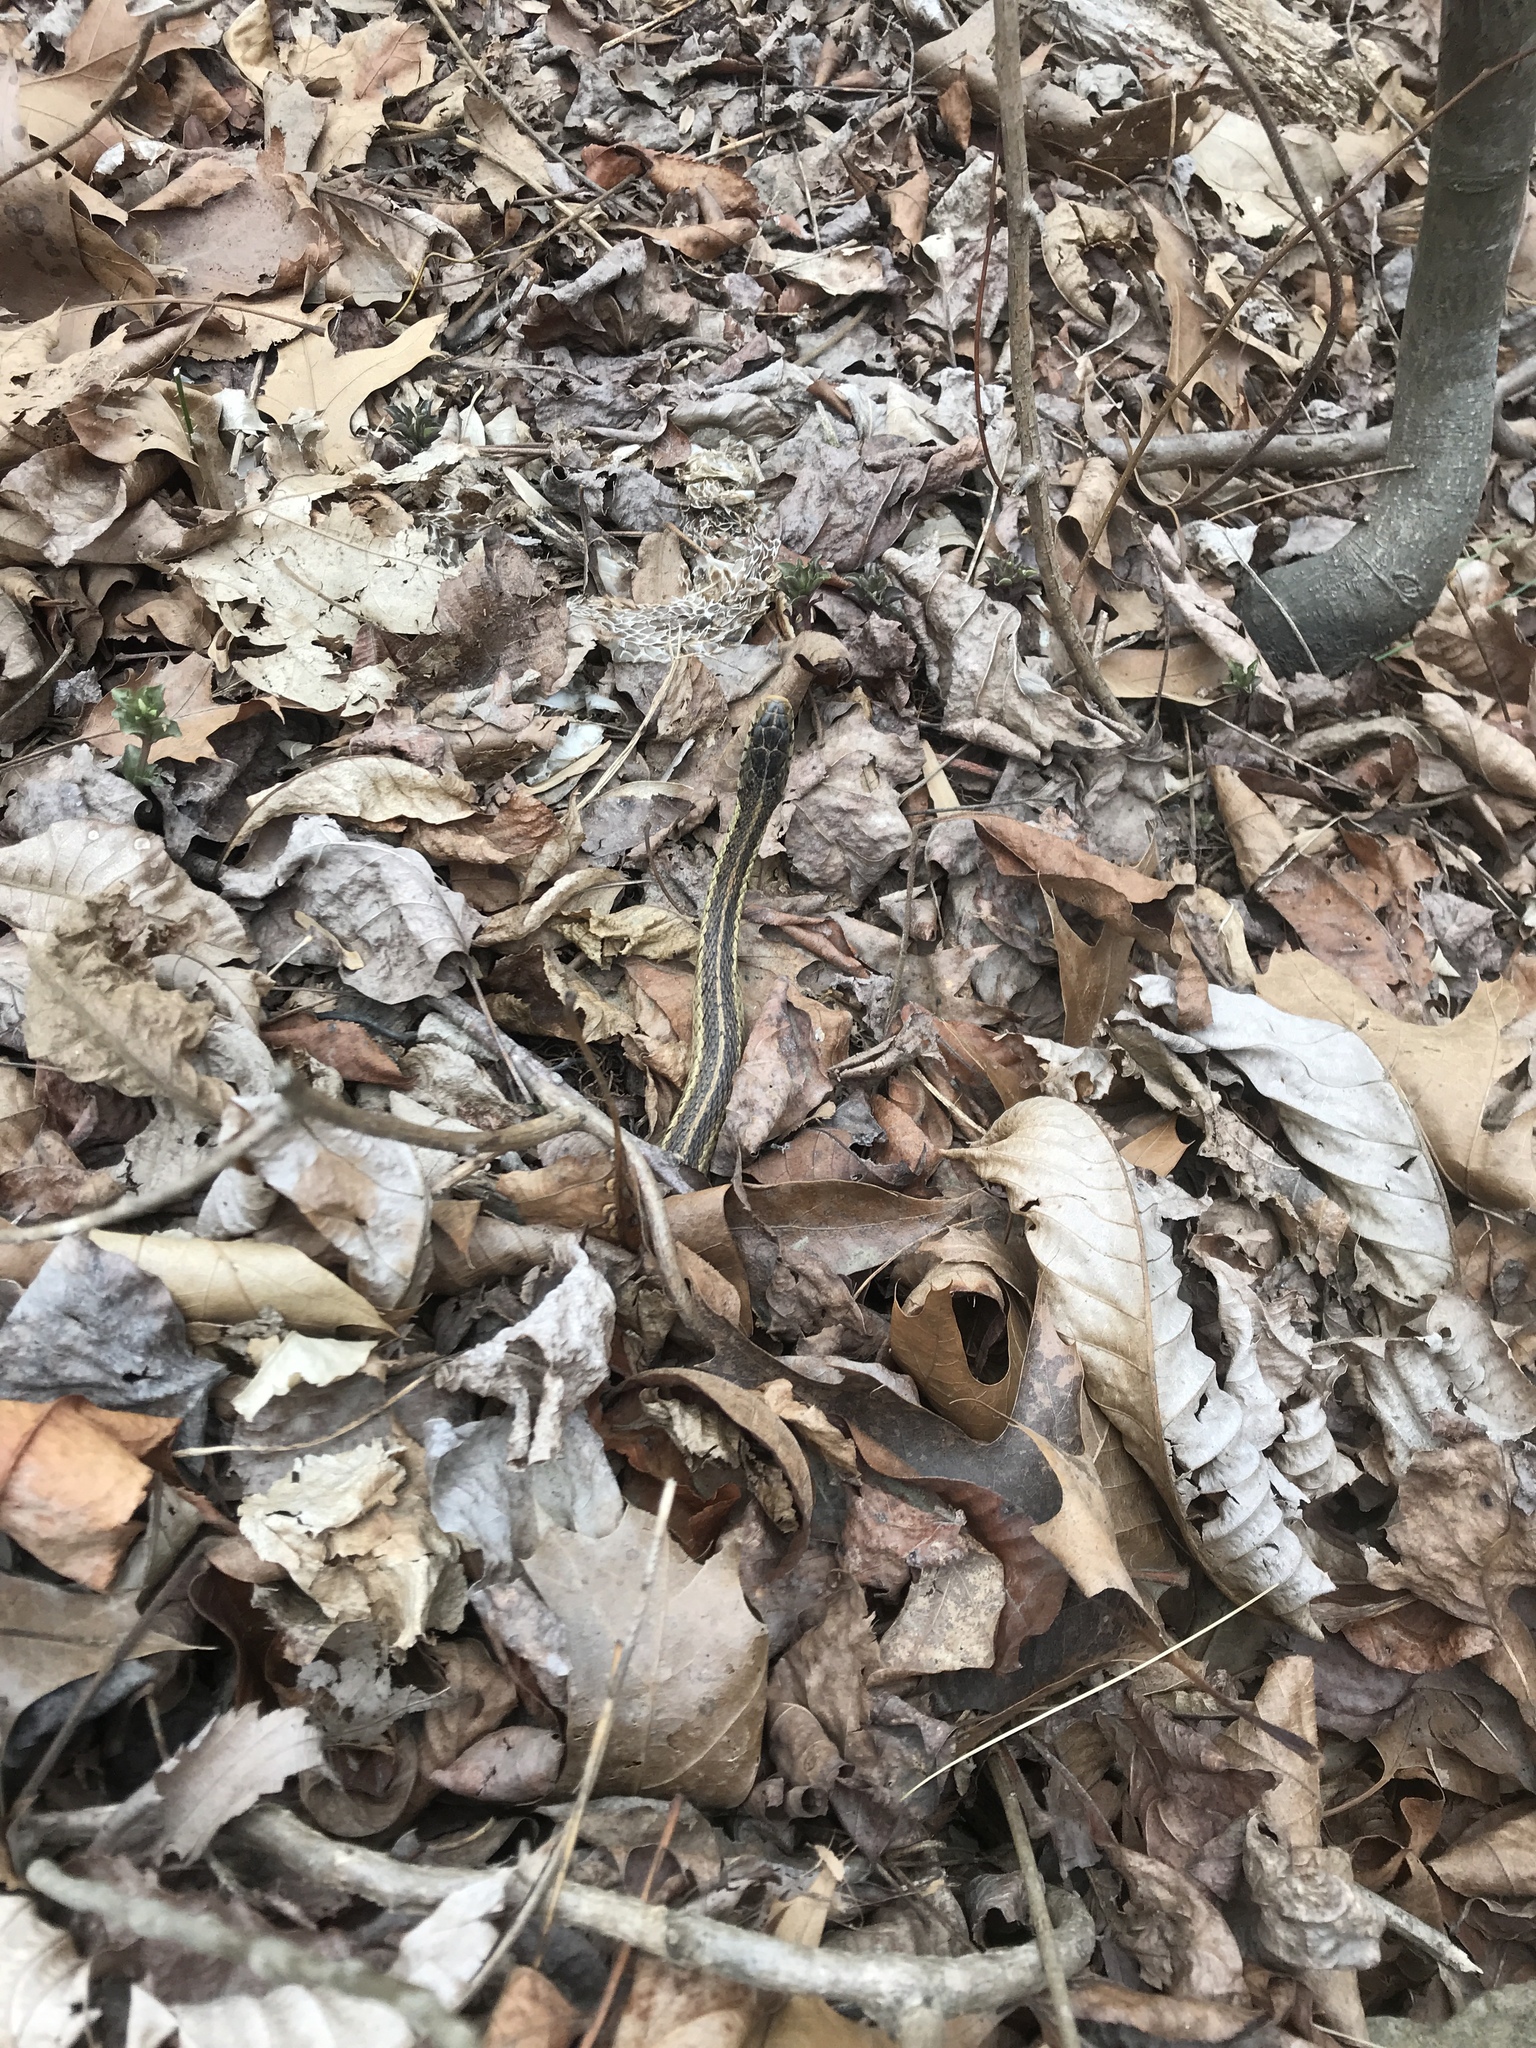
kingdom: Animalia
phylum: Chordata
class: Squamata
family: Colubridae
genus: Thamnophis
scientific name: Thamnophis sirtalis
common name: Common garter snake
